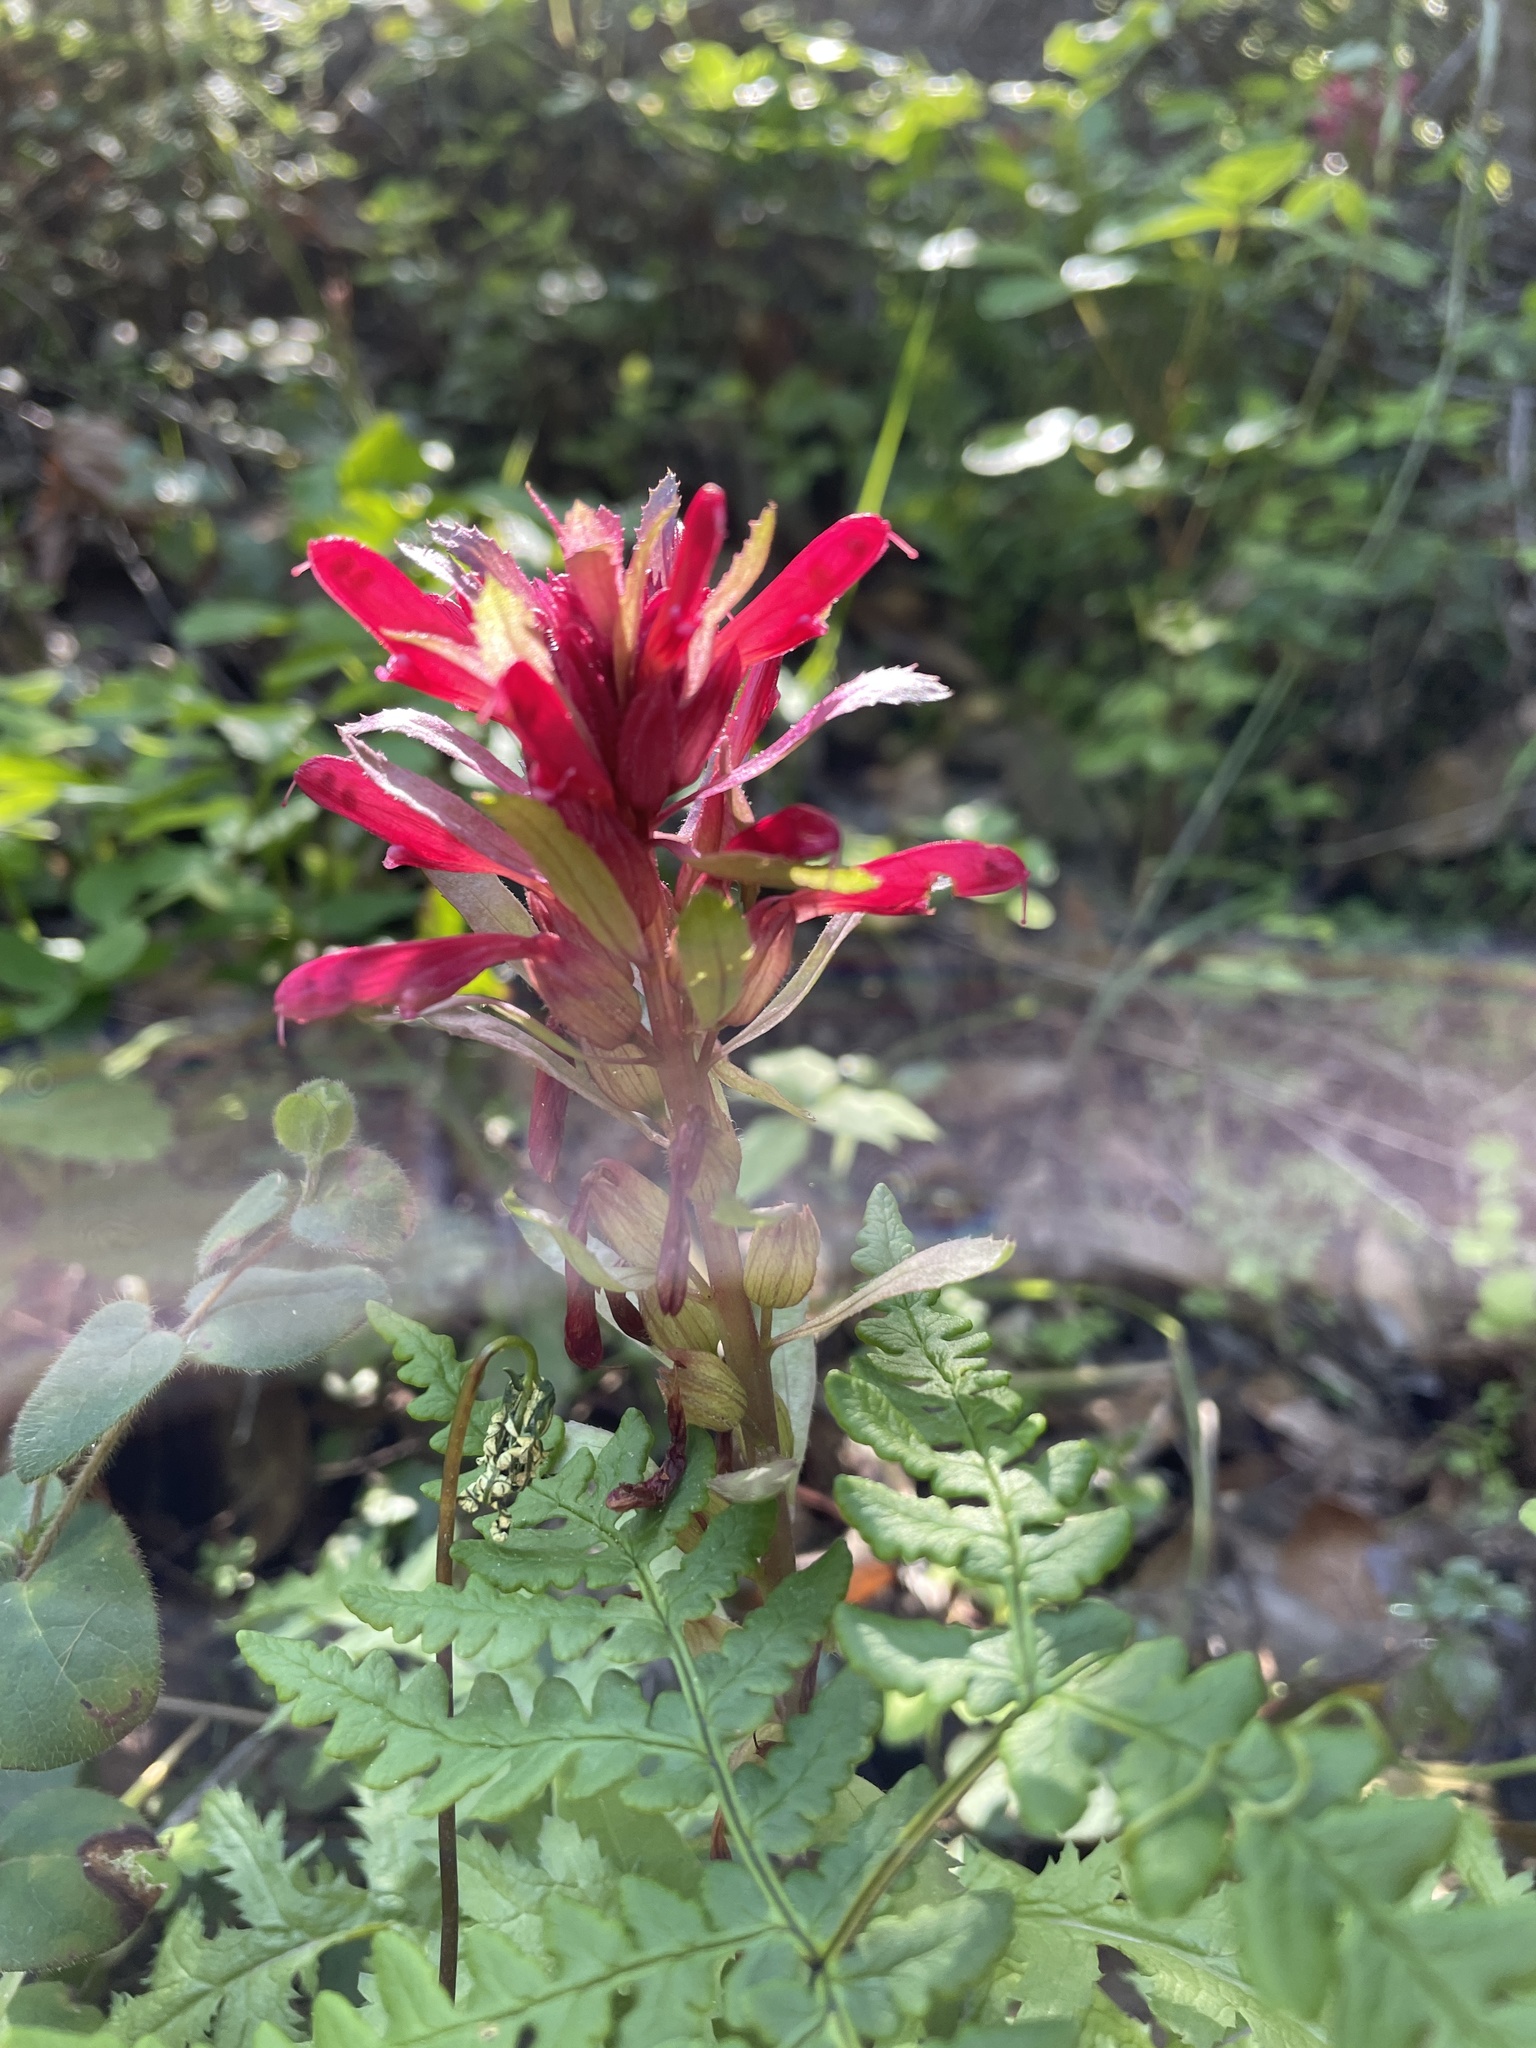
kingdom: Plantae
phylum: Tracheophyta
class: Magnoliopsida
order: Lamiales
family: Orobanchaceae
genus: Pedicularis
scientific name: Pedicularis densiflora
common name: Indian warrior
